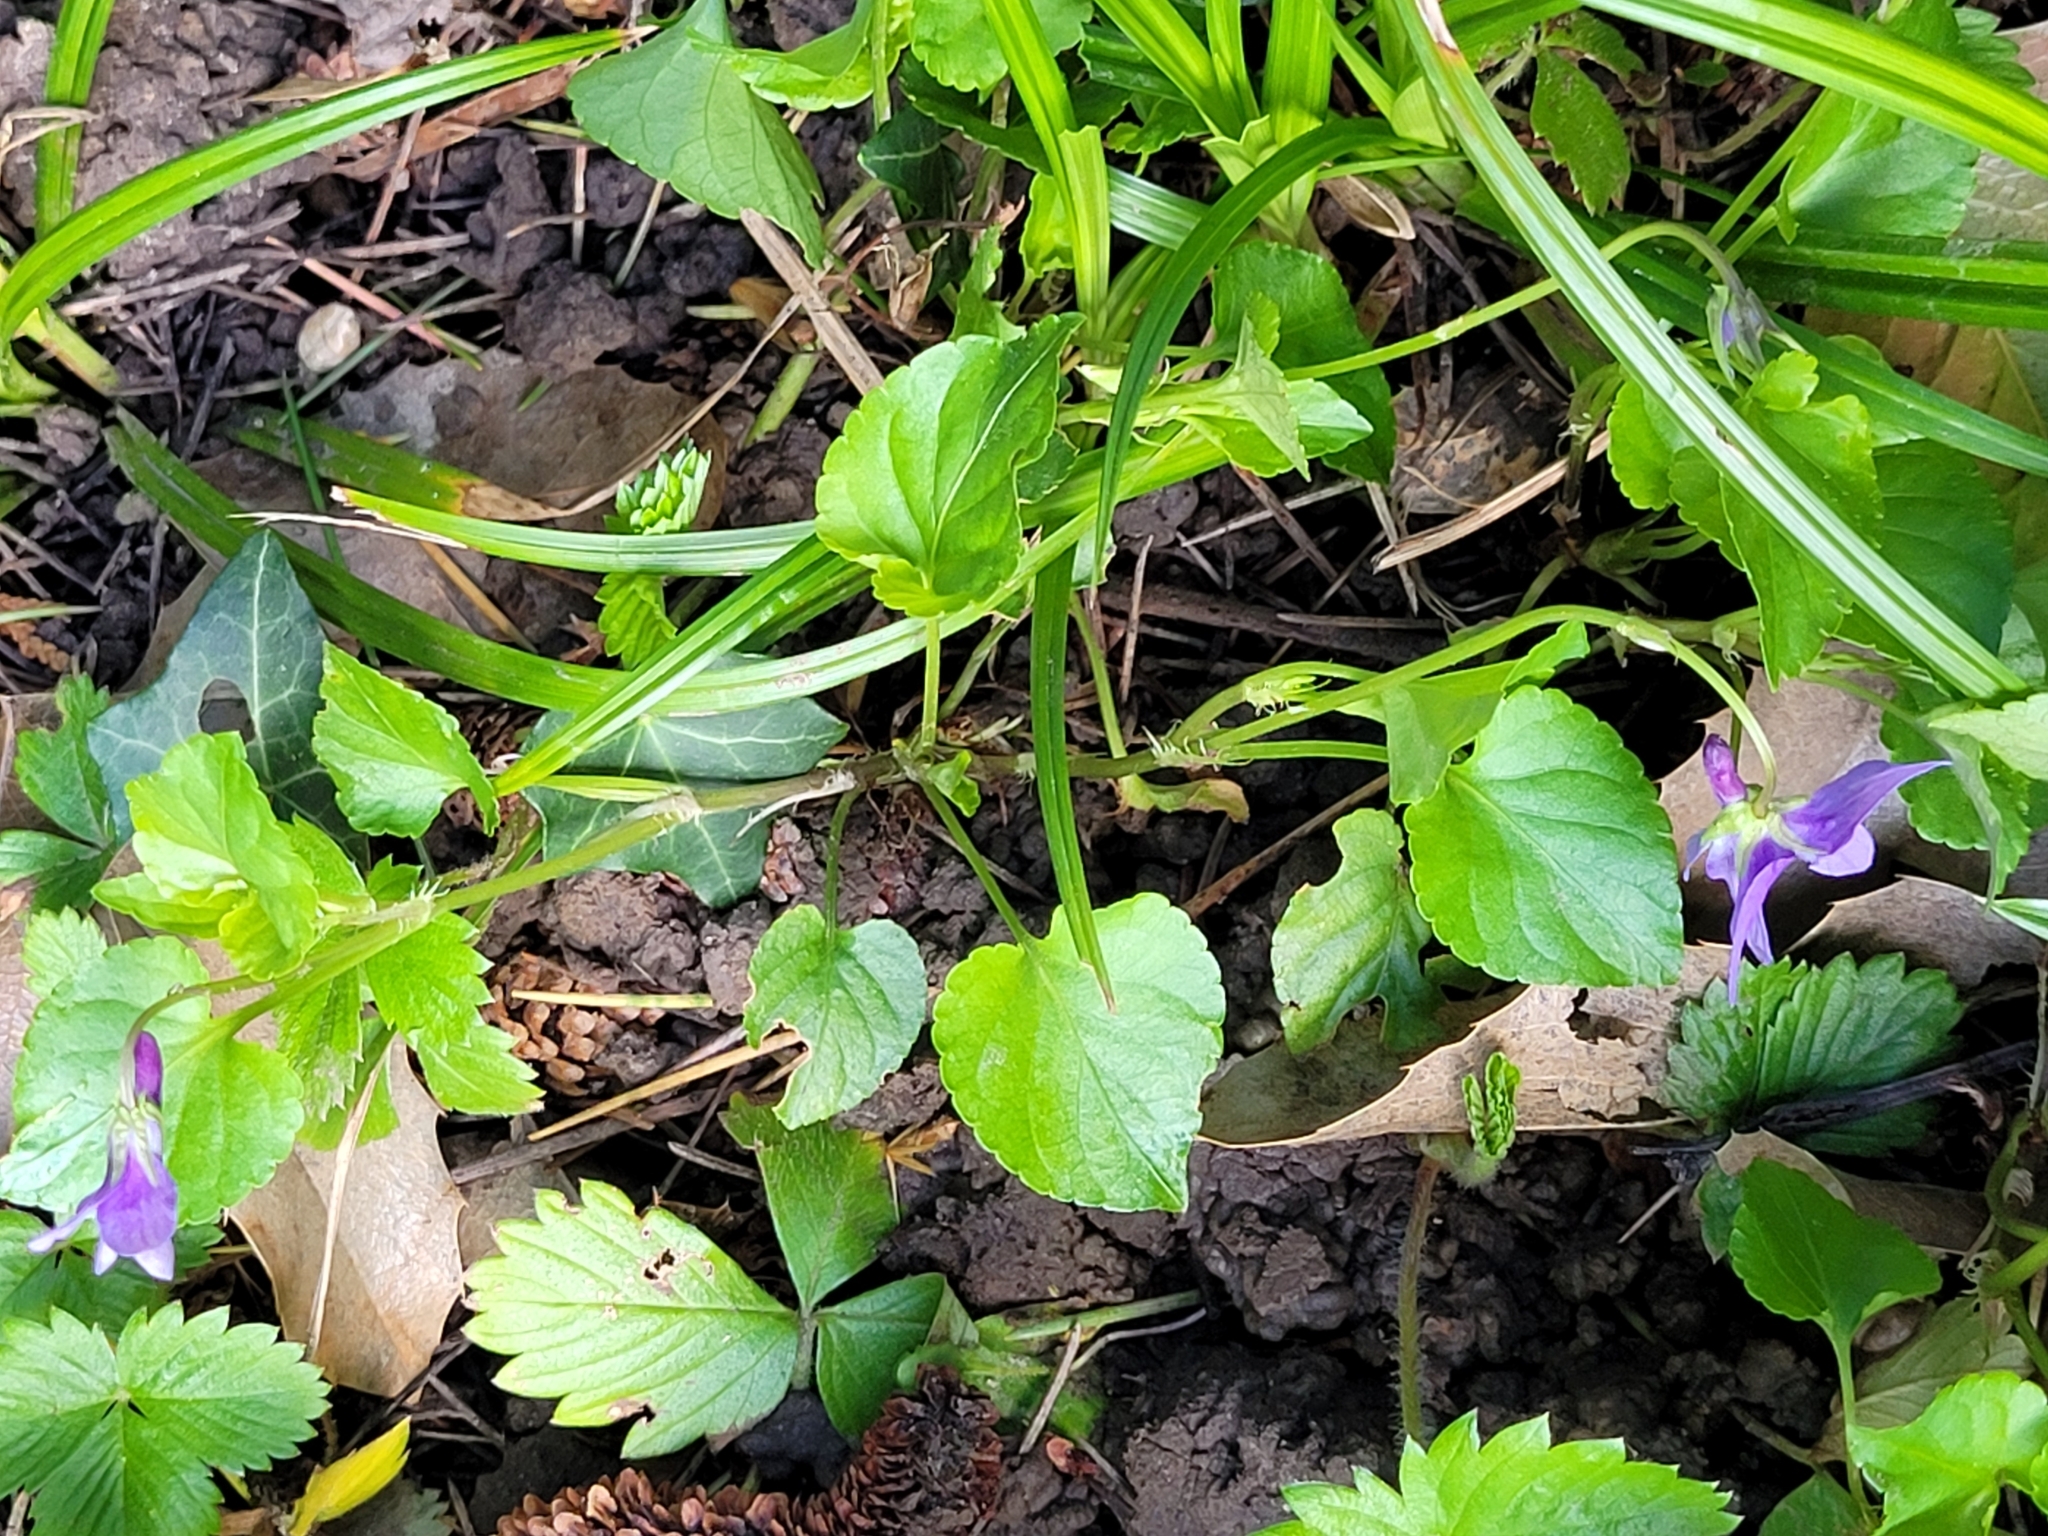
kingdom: Plantae
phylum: Tracheophyta
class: Magnoliopsida
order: Malpighiales
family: Violaceae
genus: Viola
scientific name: Viola reichenbachiana
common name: Early dog-violet
